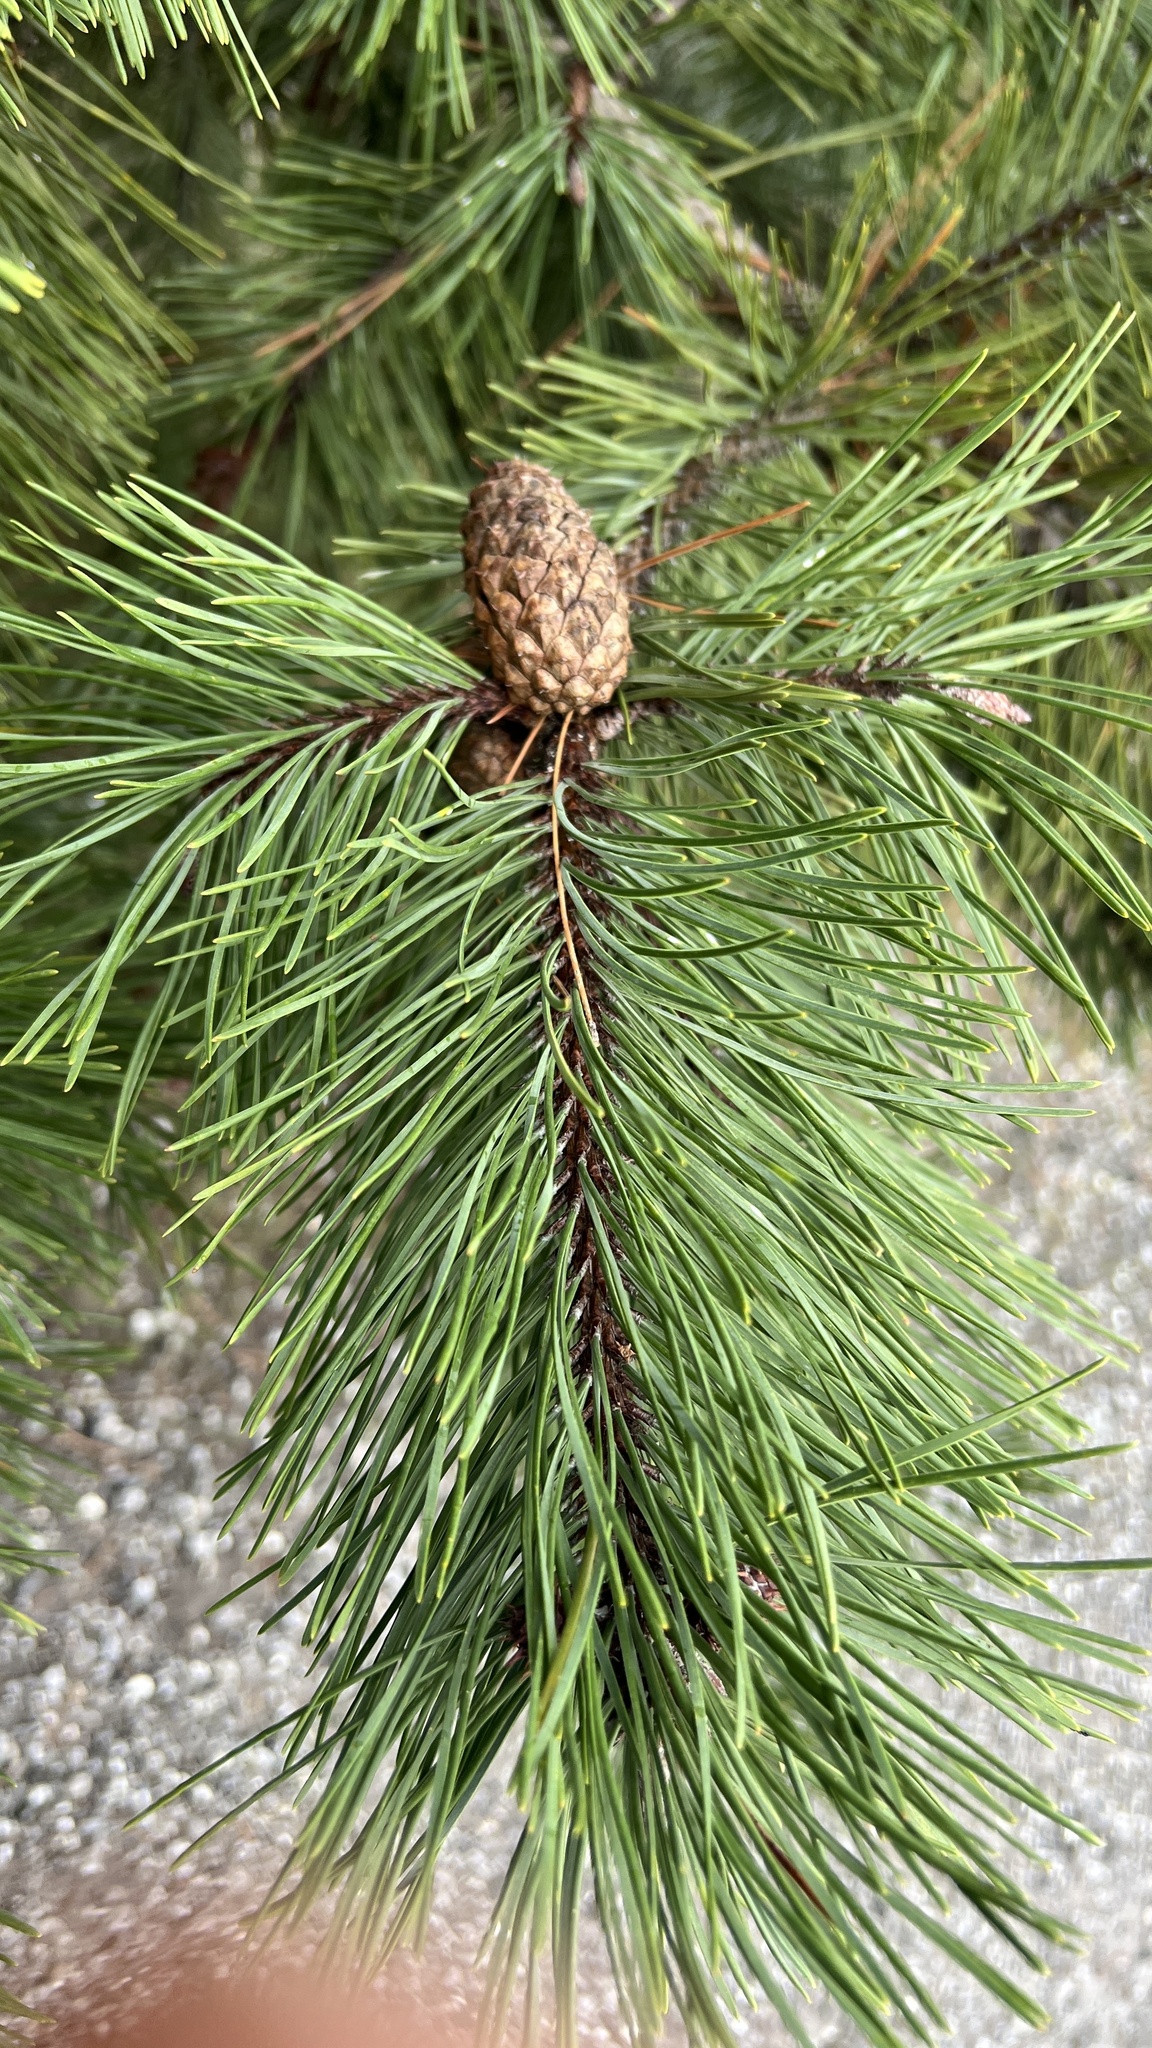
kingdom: Plantae
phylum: Tracheophyta
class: Pinopsida
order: Pinales
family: Pinaceae
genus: Pinus
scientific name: Pinus contorta
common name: Lodgepole pine
